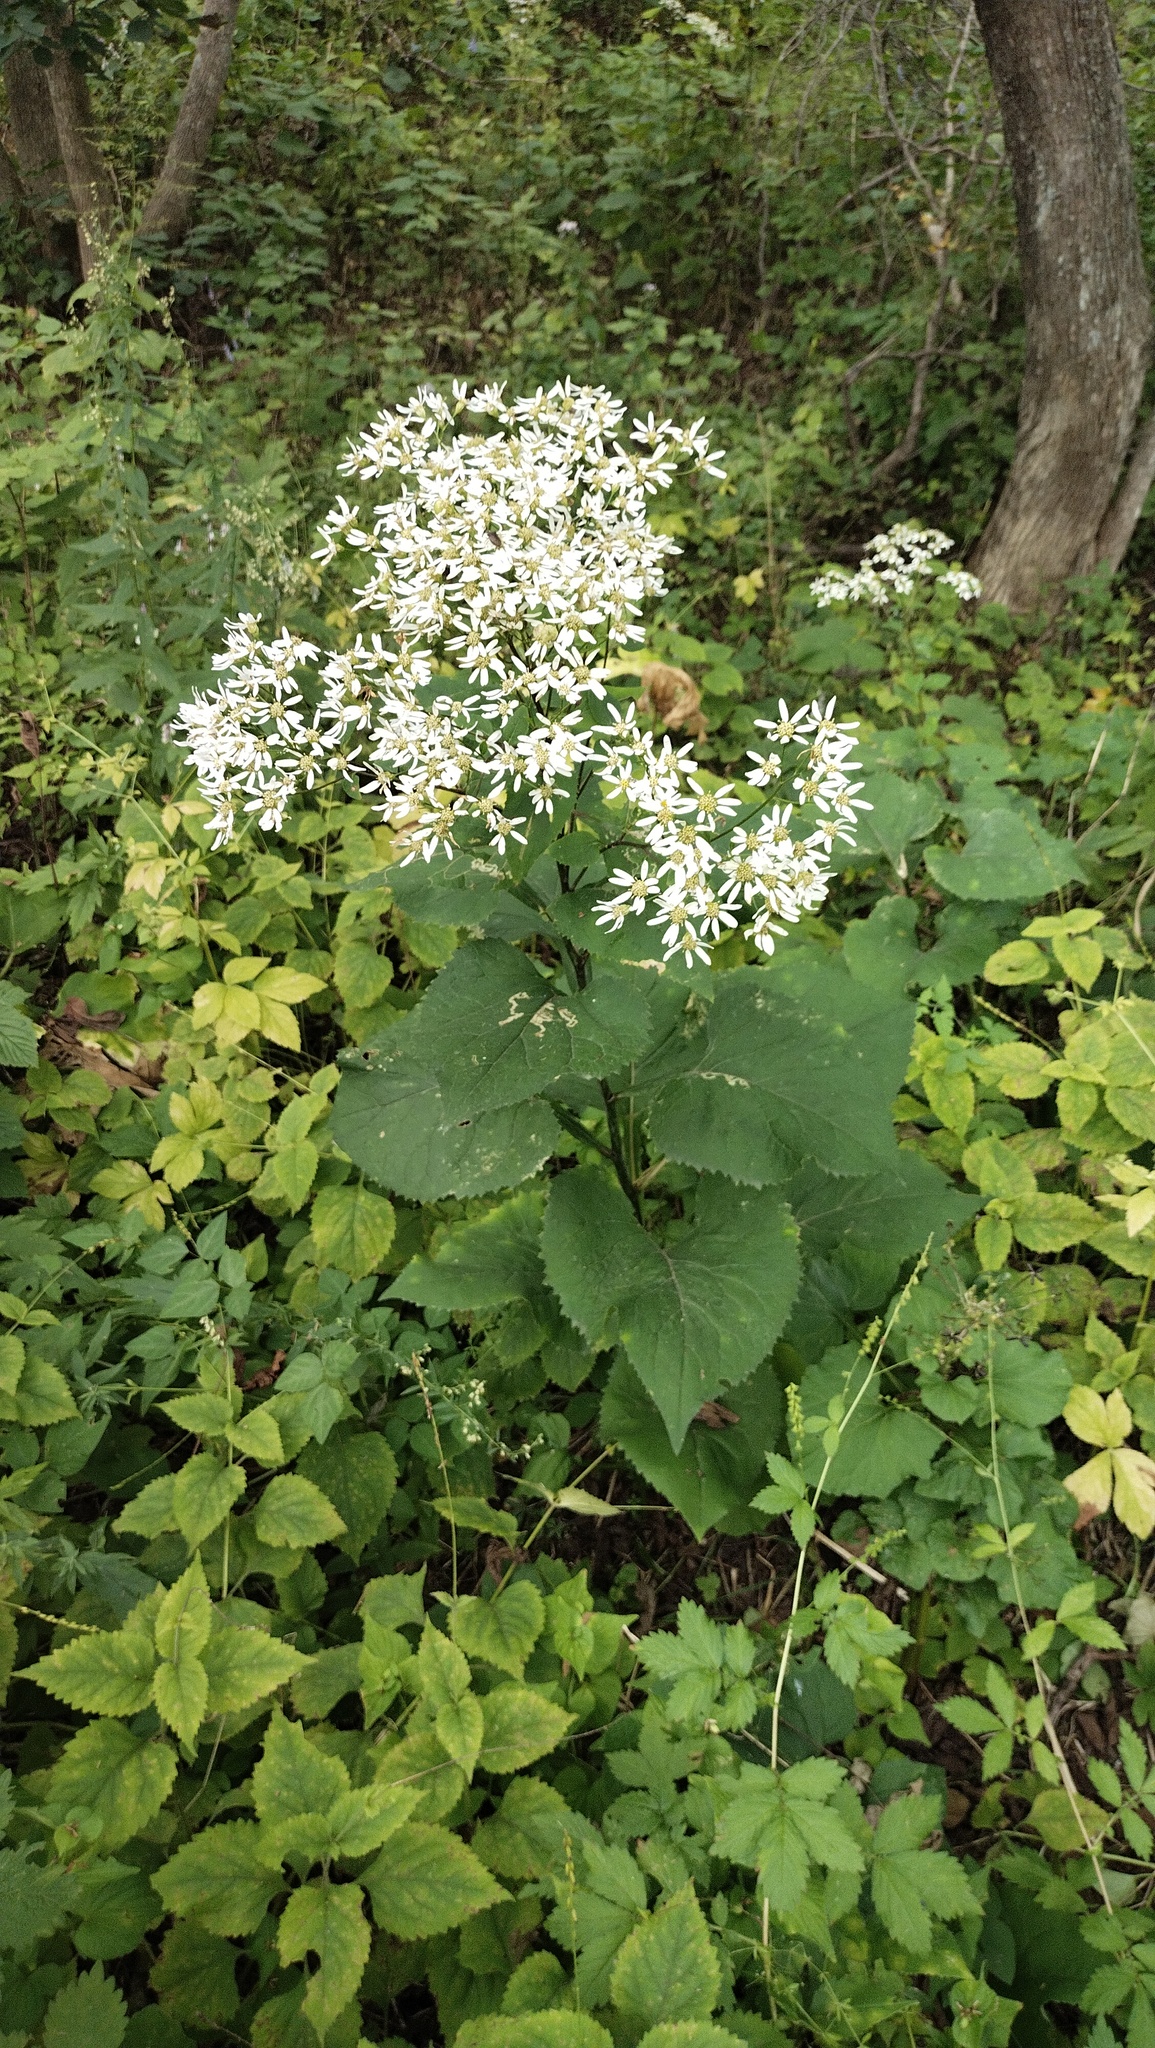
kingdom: Plantae
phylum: Tracheophyta
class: Magnoliopsida
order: Asterales
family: Asteraceae
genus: Aster
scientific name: Aster scaber
